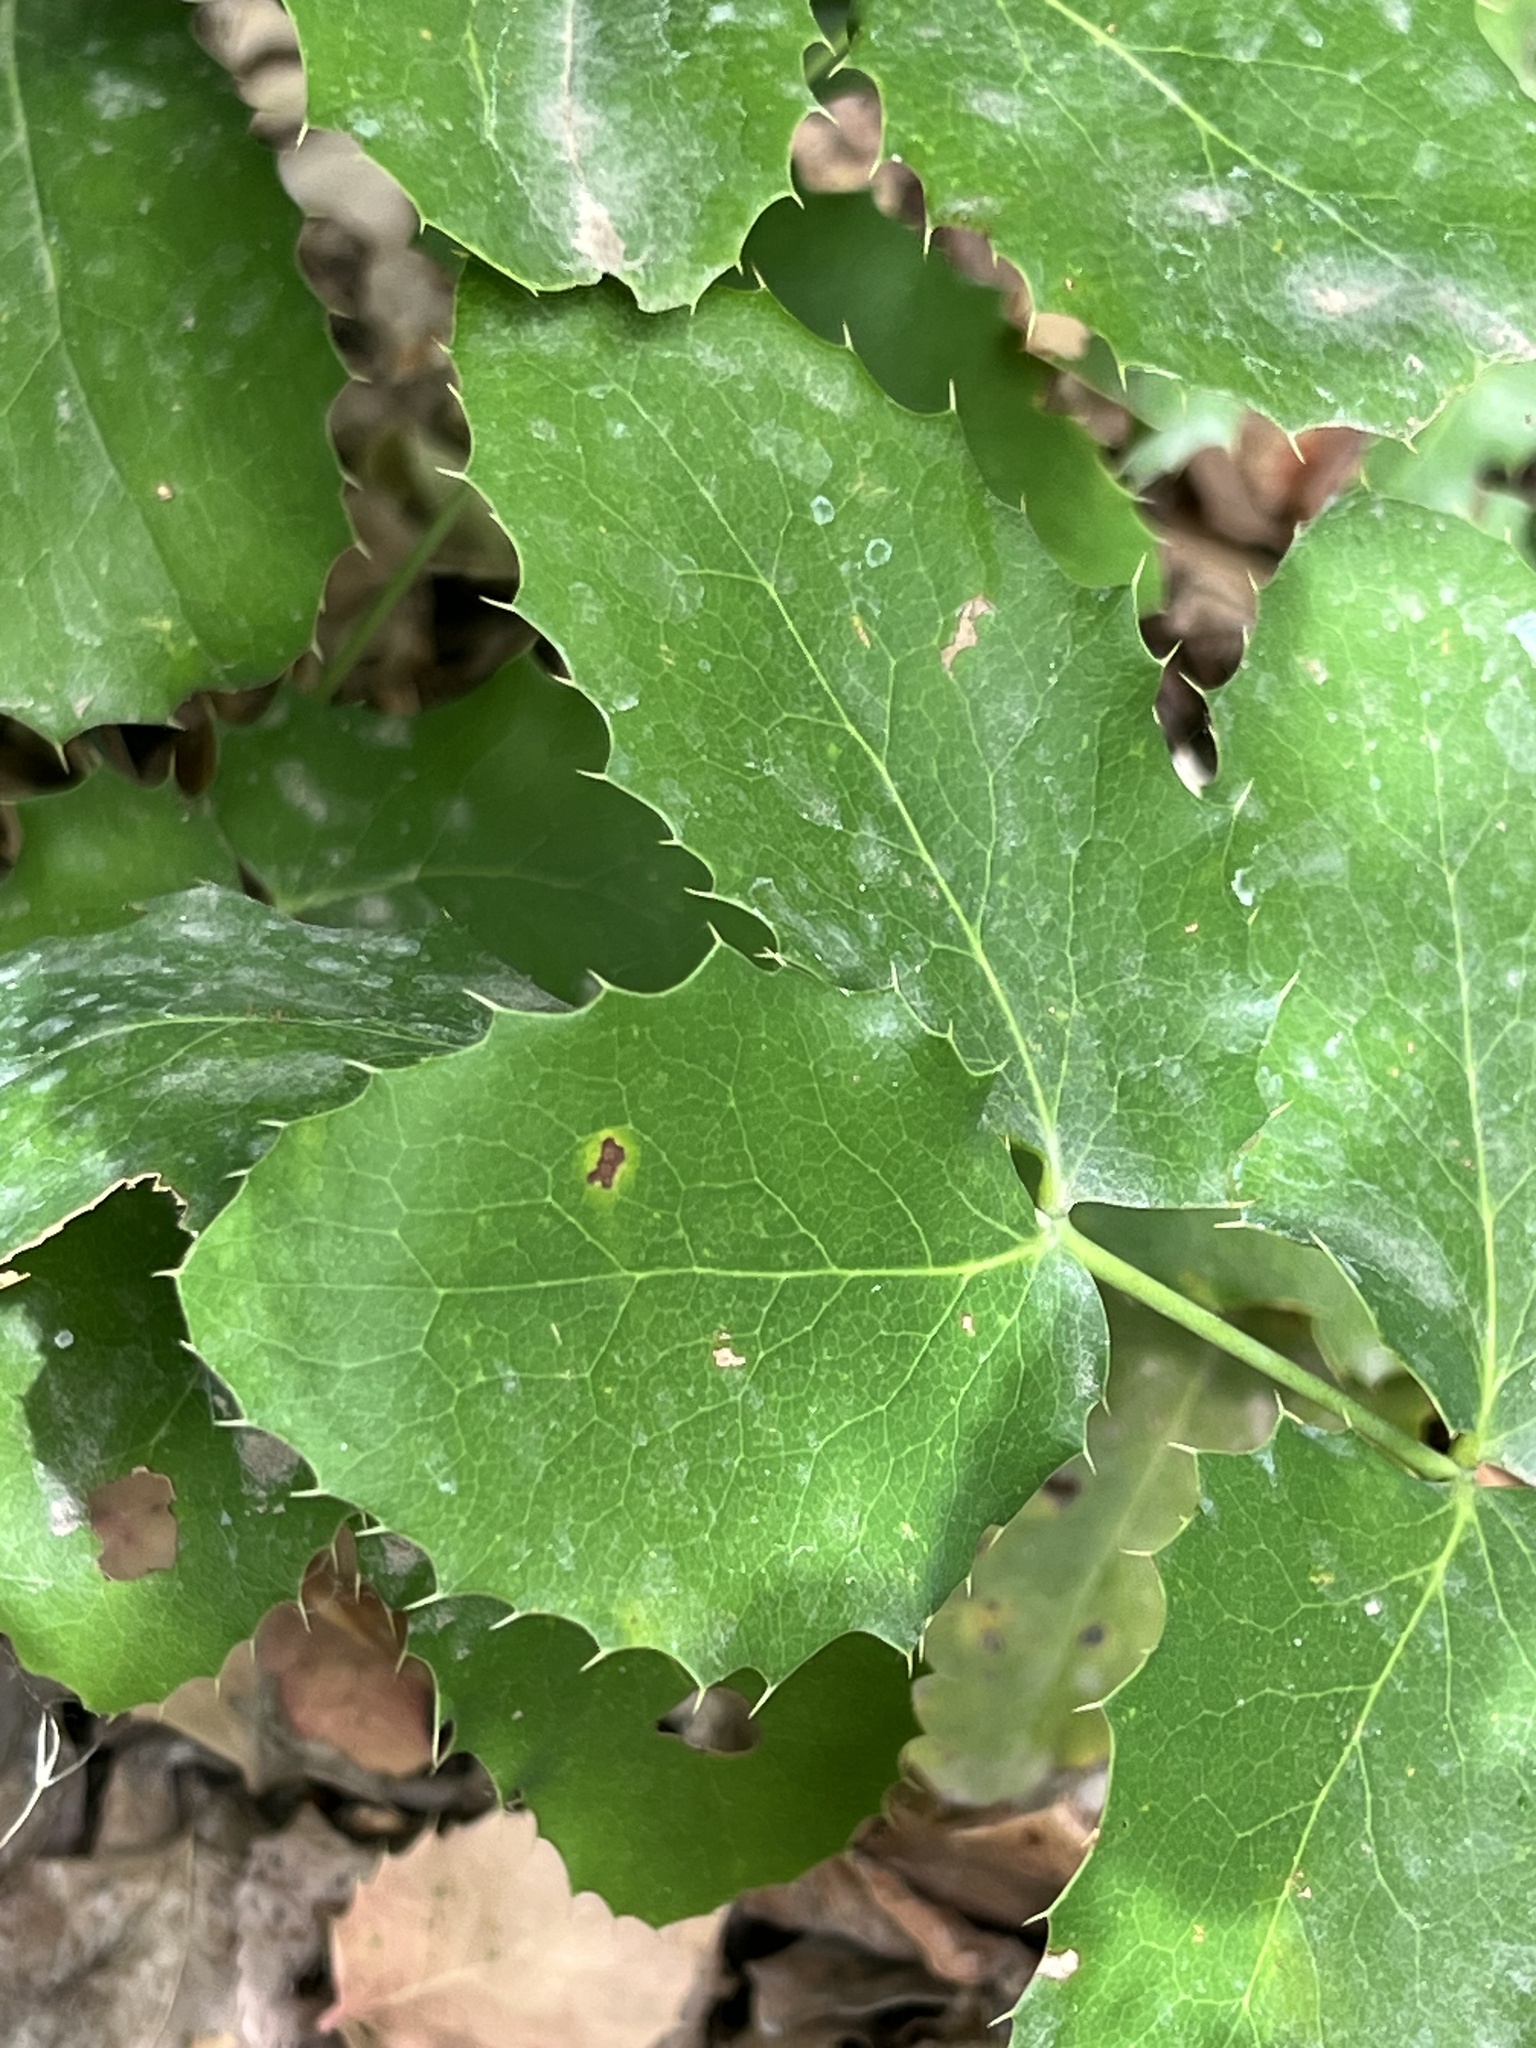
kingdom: Plantae
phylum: Tracheophyta
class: Magnoliopsida
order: Ranunculales
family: Berberidaceae
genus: Mahonia
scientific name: Mahonia repens
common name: Creeping oregon-grape
